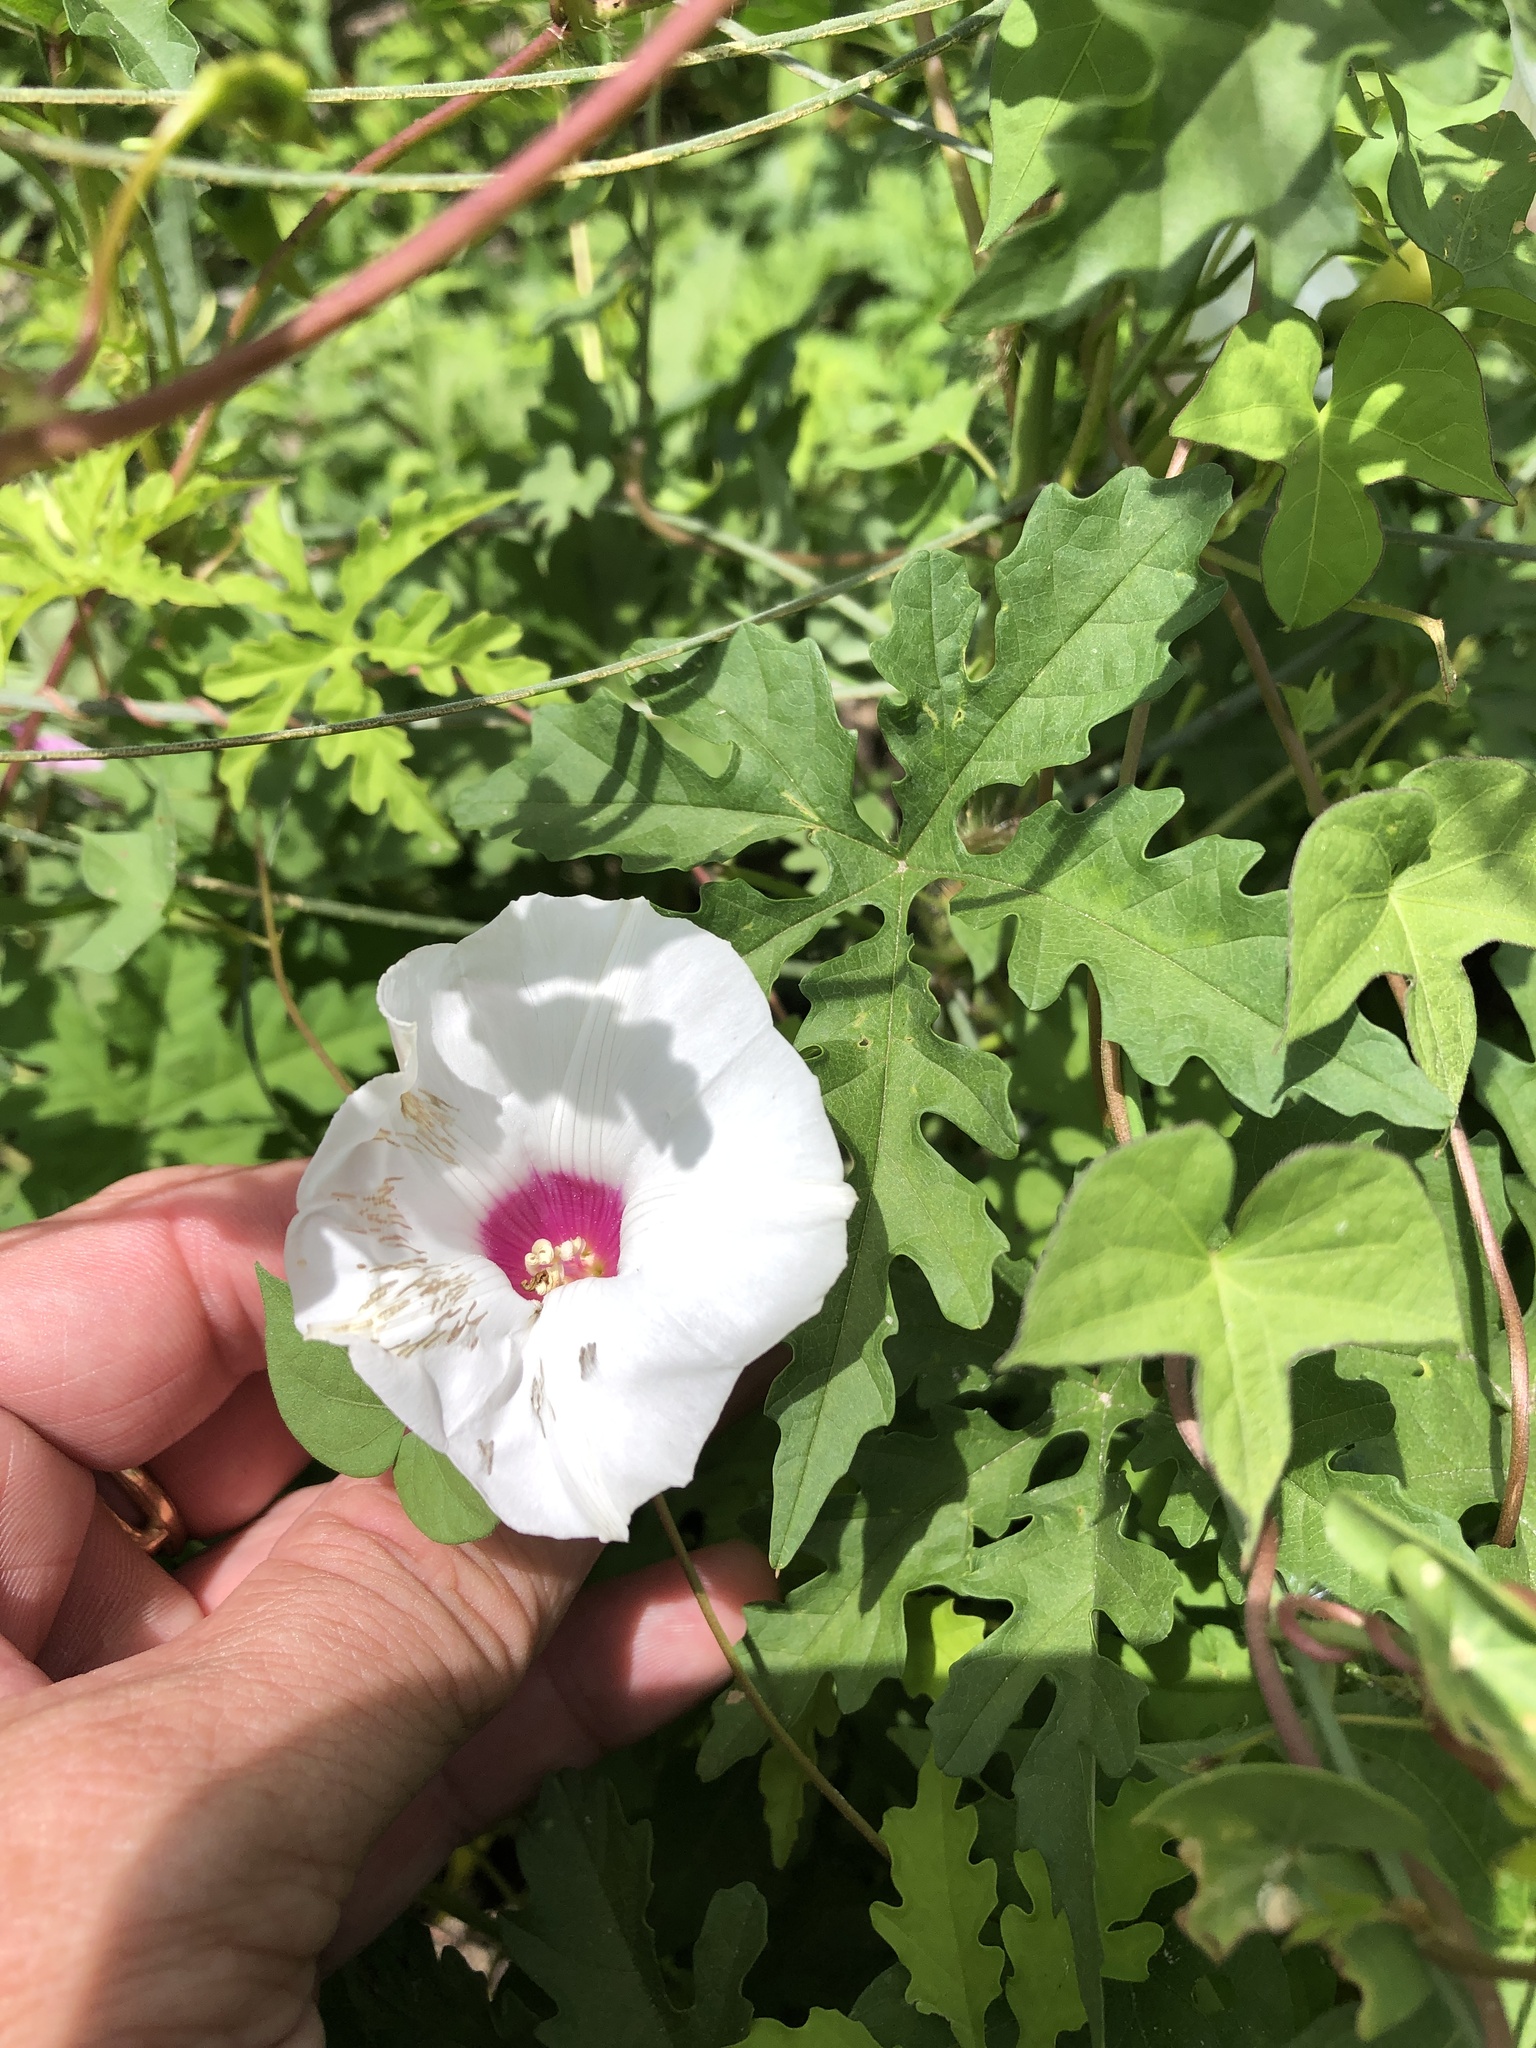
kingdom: Plantae
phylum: Tracheophyta
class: Magnoliopsida
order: Solanales
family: Convolvulaceae
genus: Distimake
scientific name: Distimake dissectus
